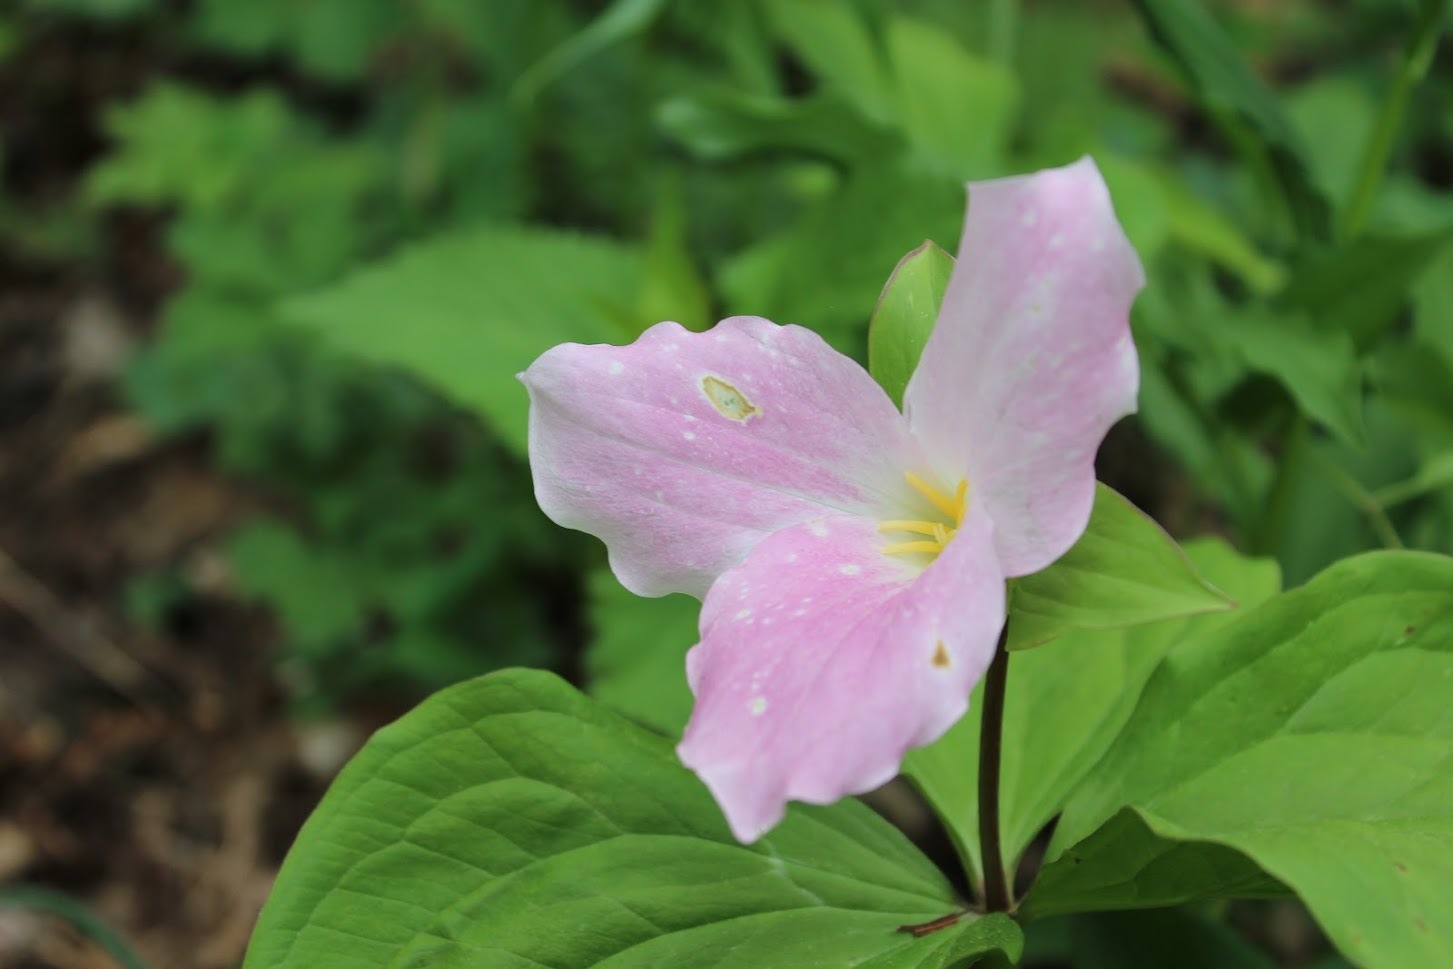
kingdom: Plantae
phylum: Tracheophyta
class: Liliopsida
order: Liliales
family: Melanthiaceae
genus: Trillium
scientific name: Trillium grandiflorum
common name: Great white trillium
